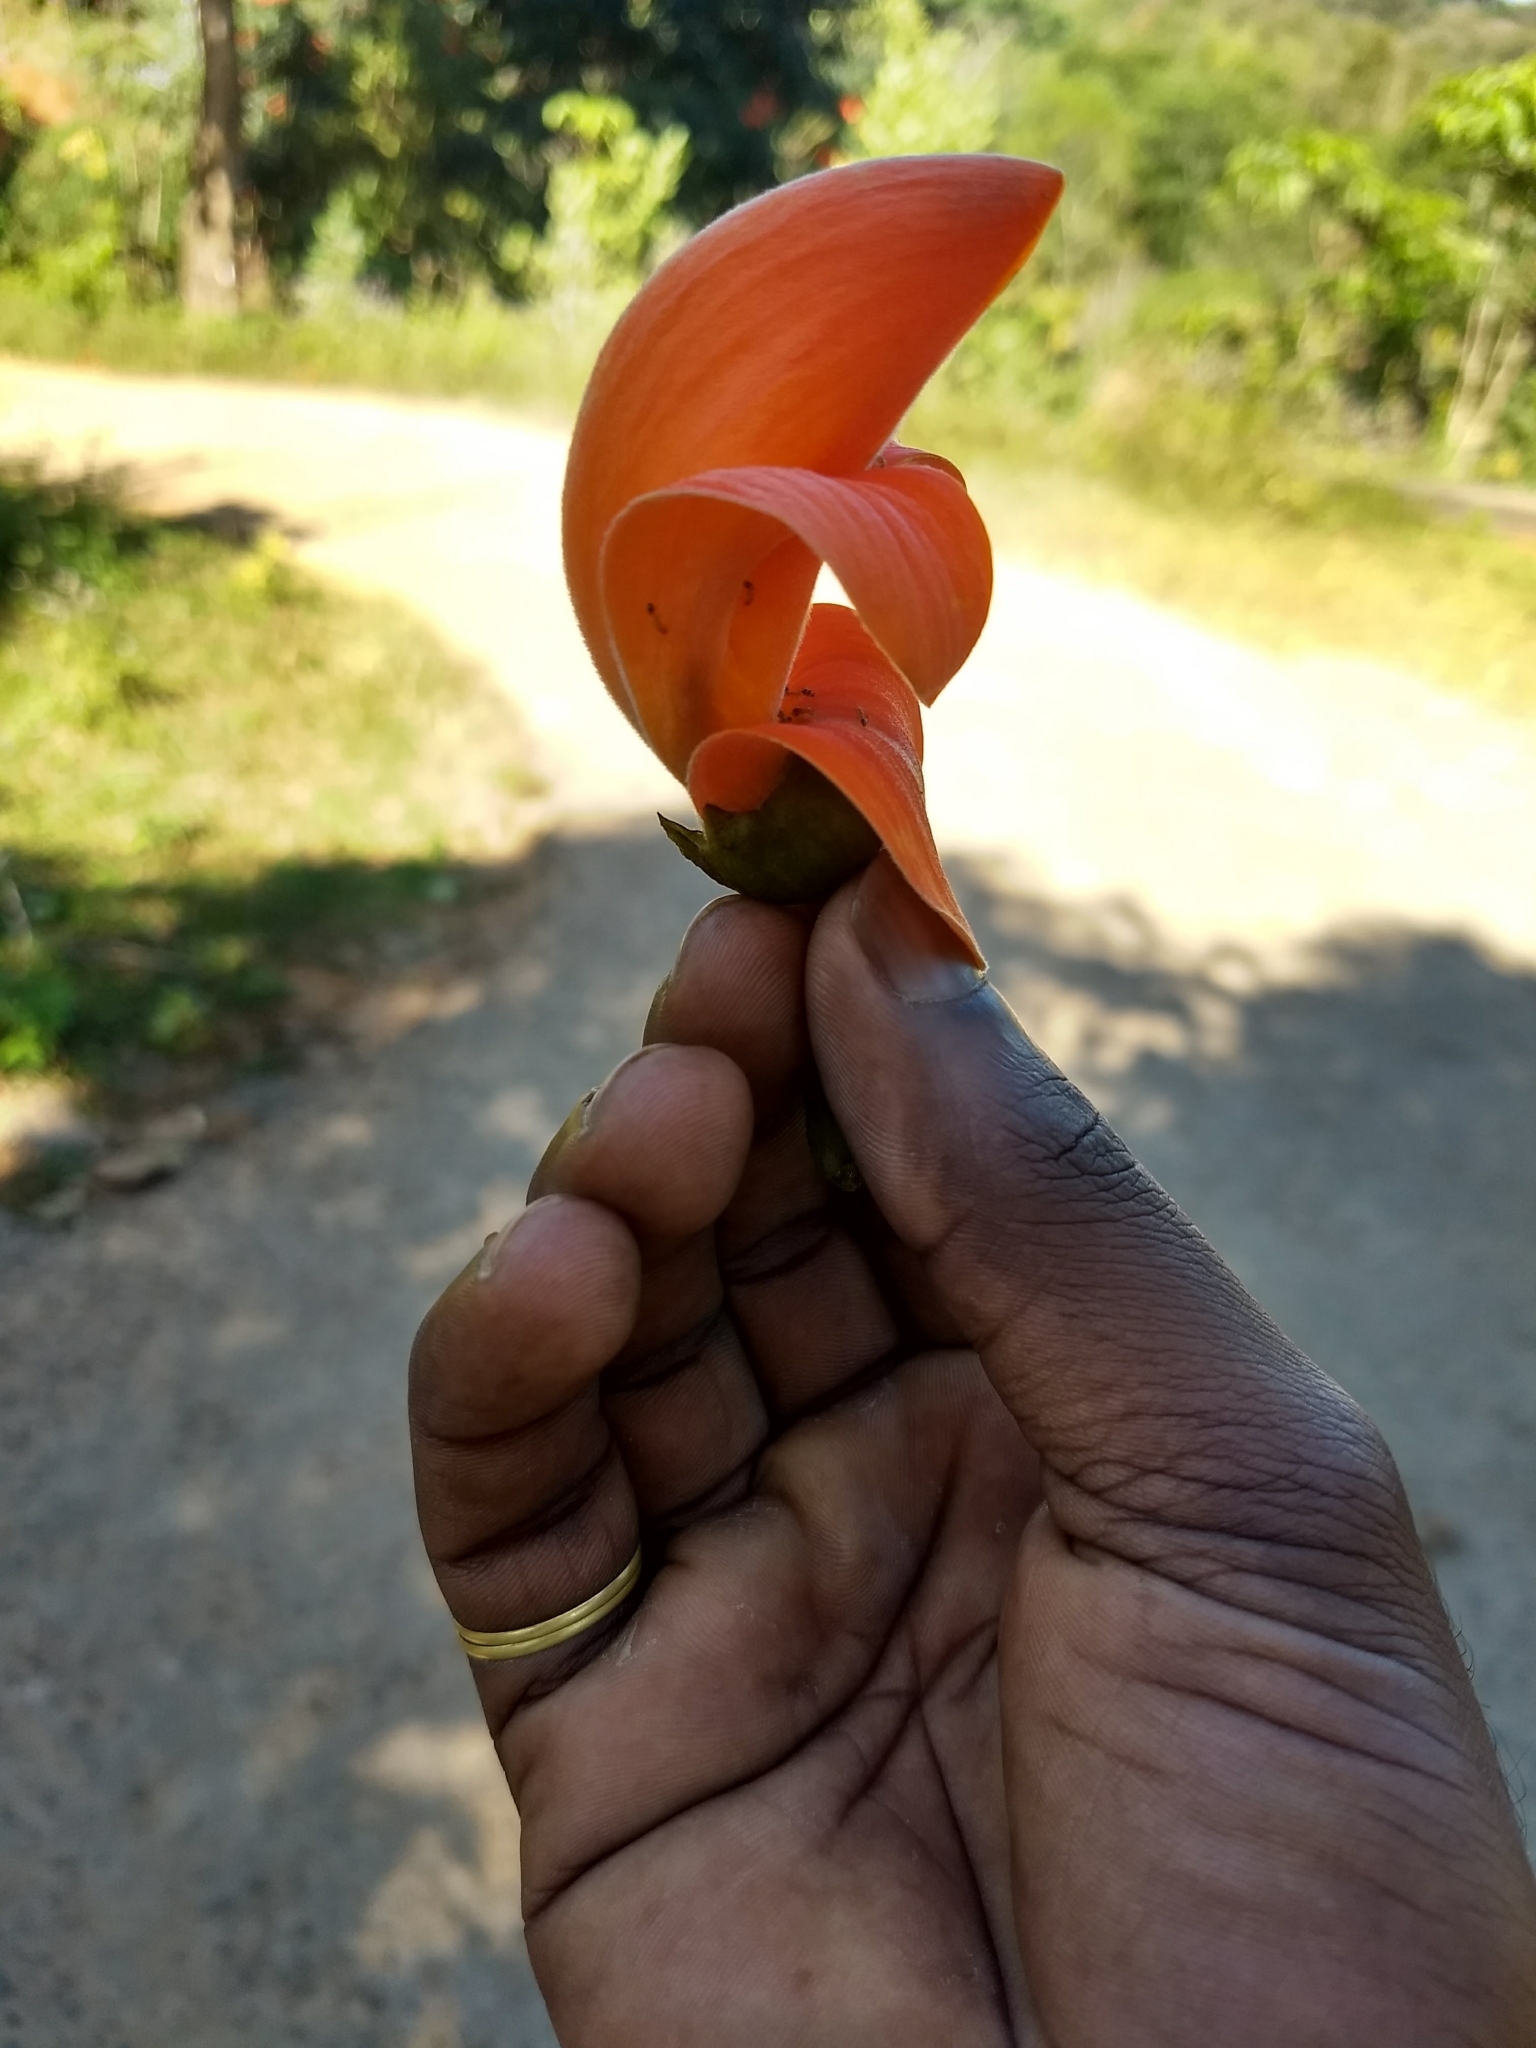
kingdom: Plantae
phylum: Tracheophyta
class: Magnoliopsida
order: Fabales
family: Fabaceae
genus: Butea
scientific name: Butea monosperma
